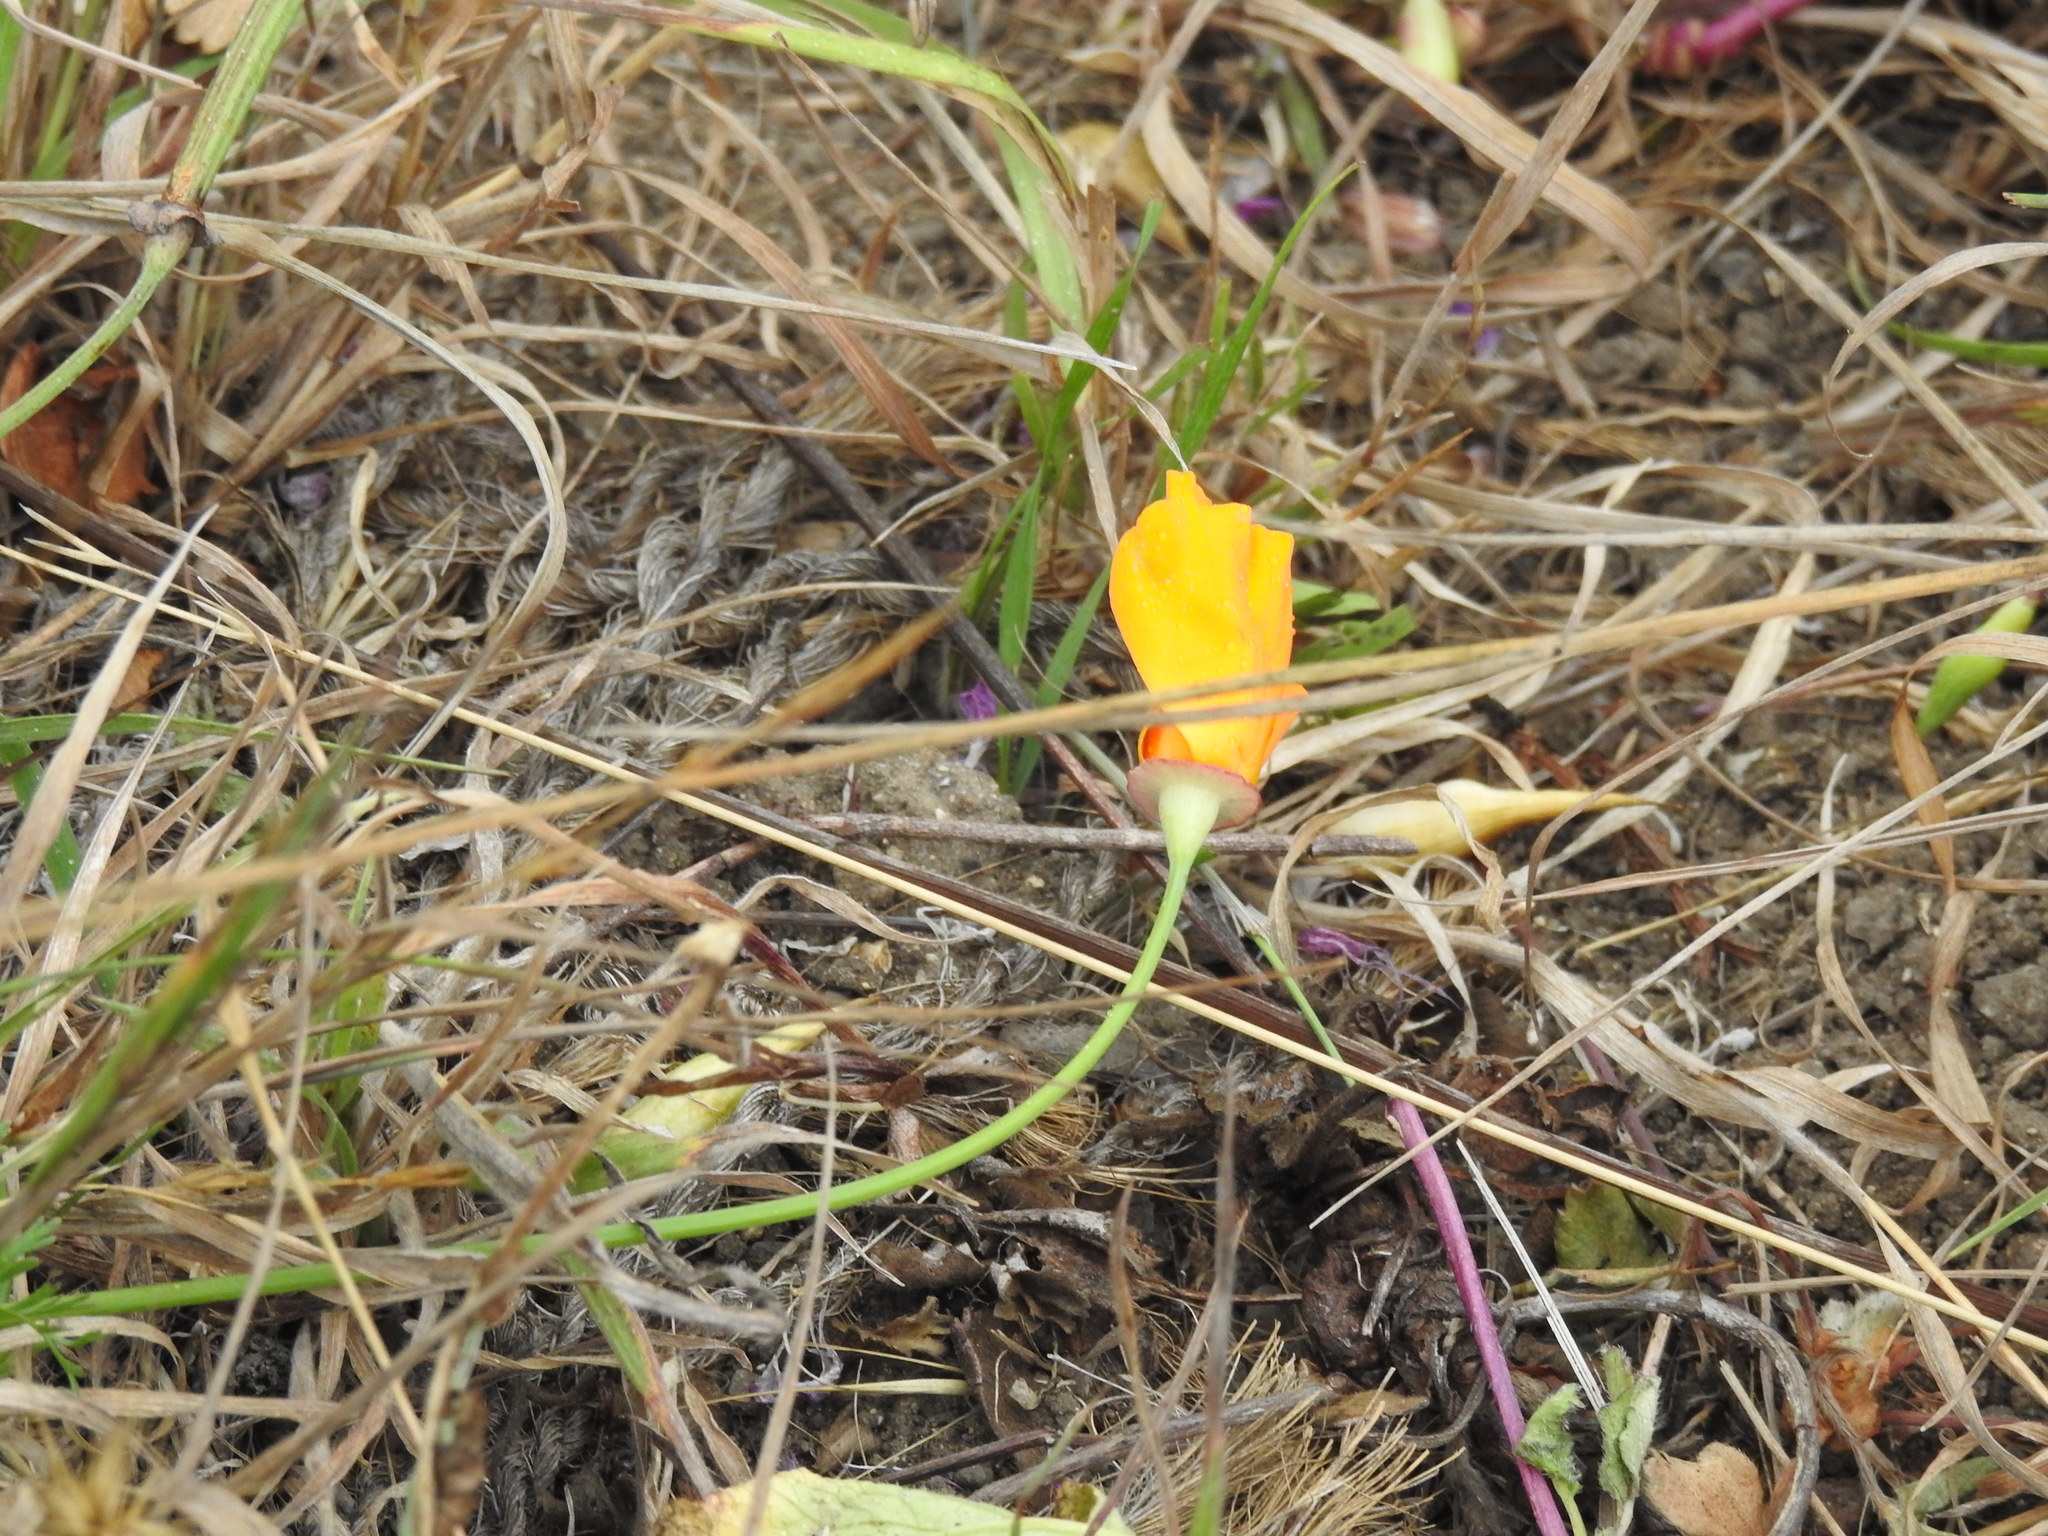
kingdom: Plantae
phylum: Tracheophyta
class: Magnoliopsida
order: Ranunculales
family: Papaveraceae
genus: Eschscholzia
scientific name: Eschscholzia californica
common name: California poppy
